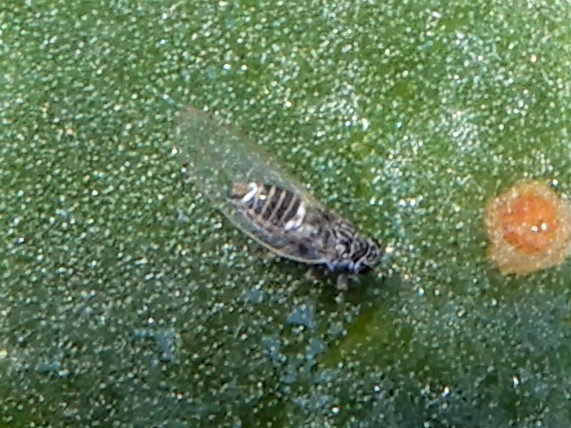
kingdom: Animalia
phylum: Arthropoda
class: Insecta
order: Hemiptera
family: Triozidae
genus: Bactericera
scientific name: Bactericera cockerelli
